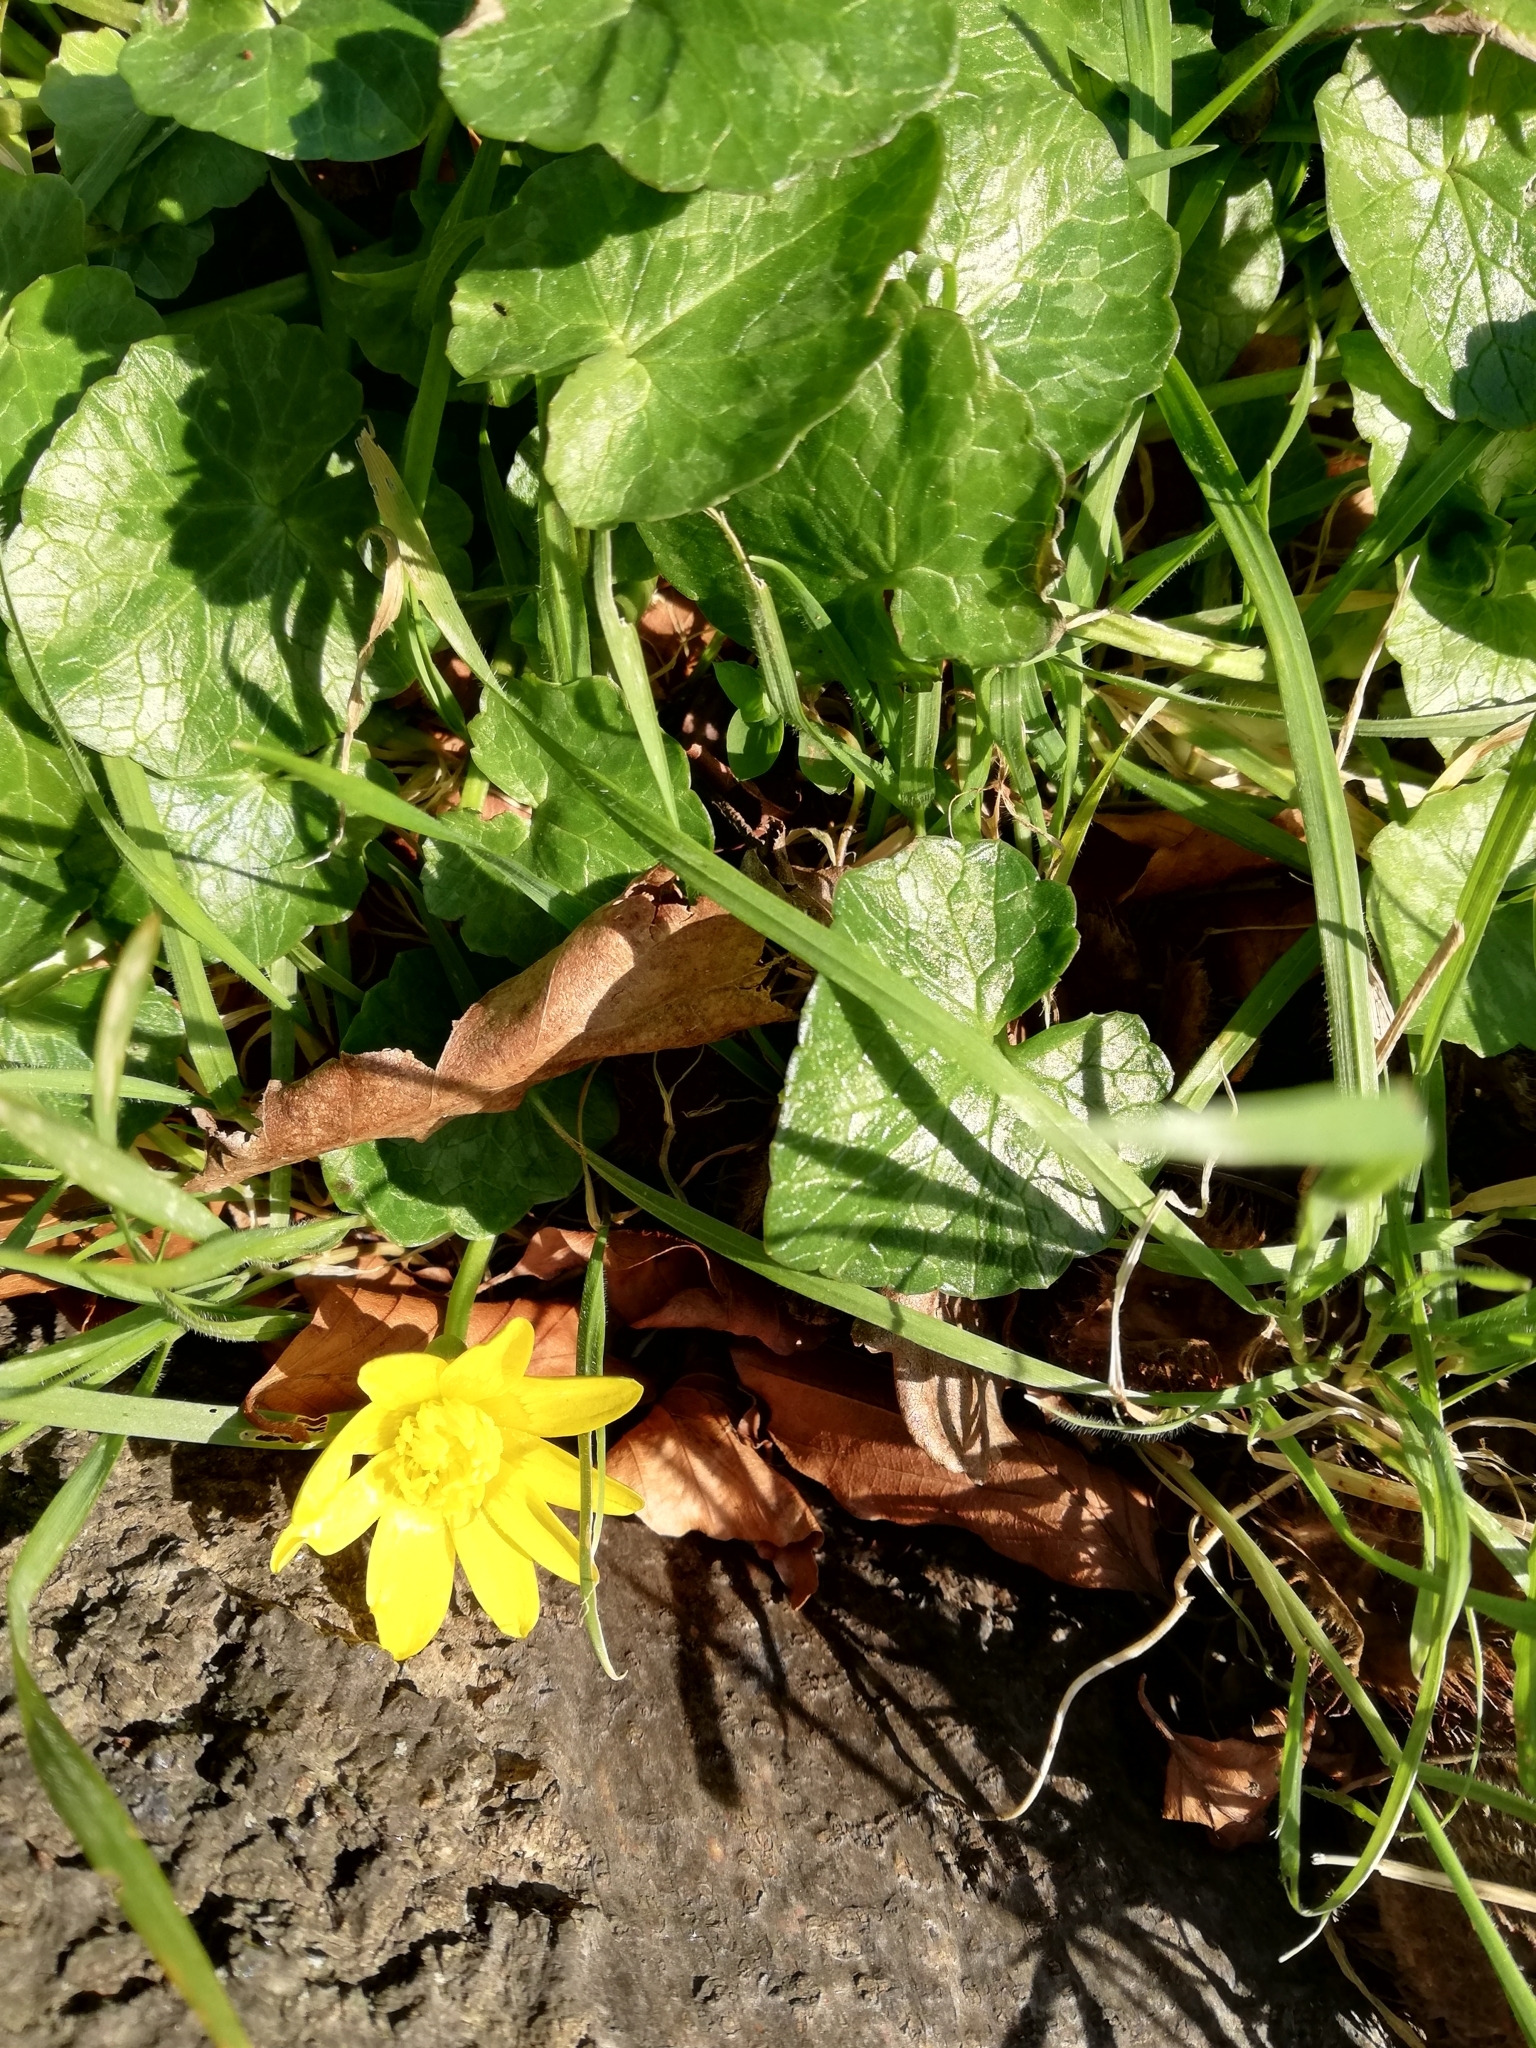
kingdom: Plantae
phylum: Tracheophyta
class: Magnoliopsida
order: Ranunculales
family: Ranunculaceae
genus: Ficaria
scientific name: Ficaria verna
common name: Lesser celandine
